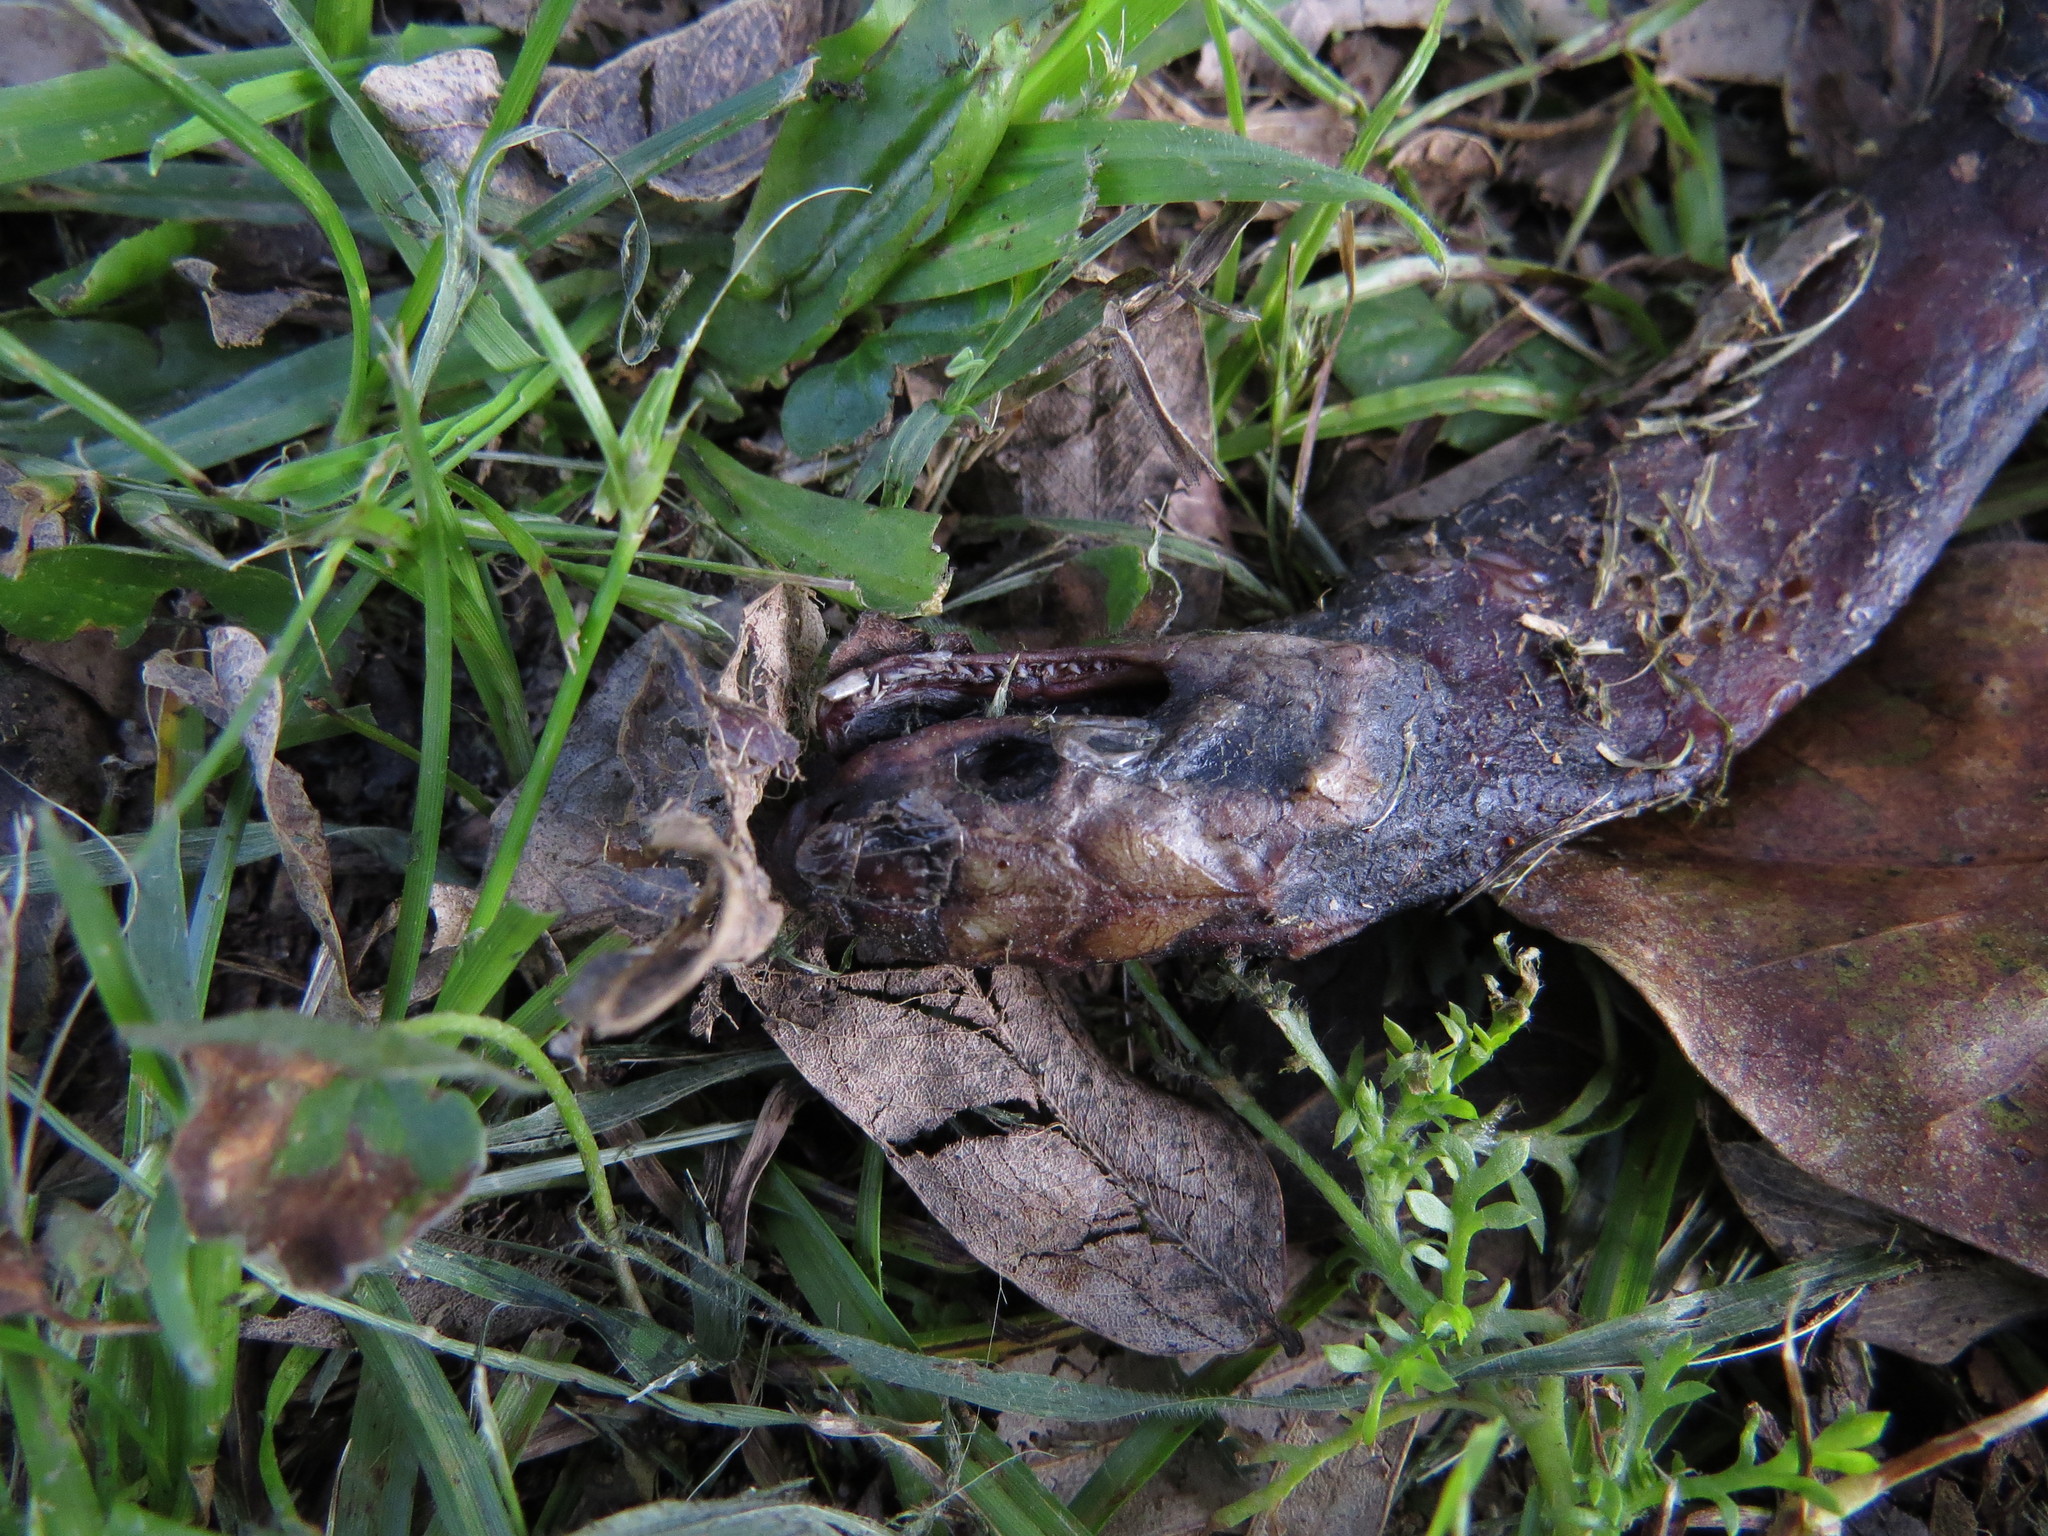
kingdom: Animalia
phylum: Chordata
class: Squamata
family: Colubridae
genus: Paraphimophis
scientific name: Paraphimophis rusticus
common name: Culebra
